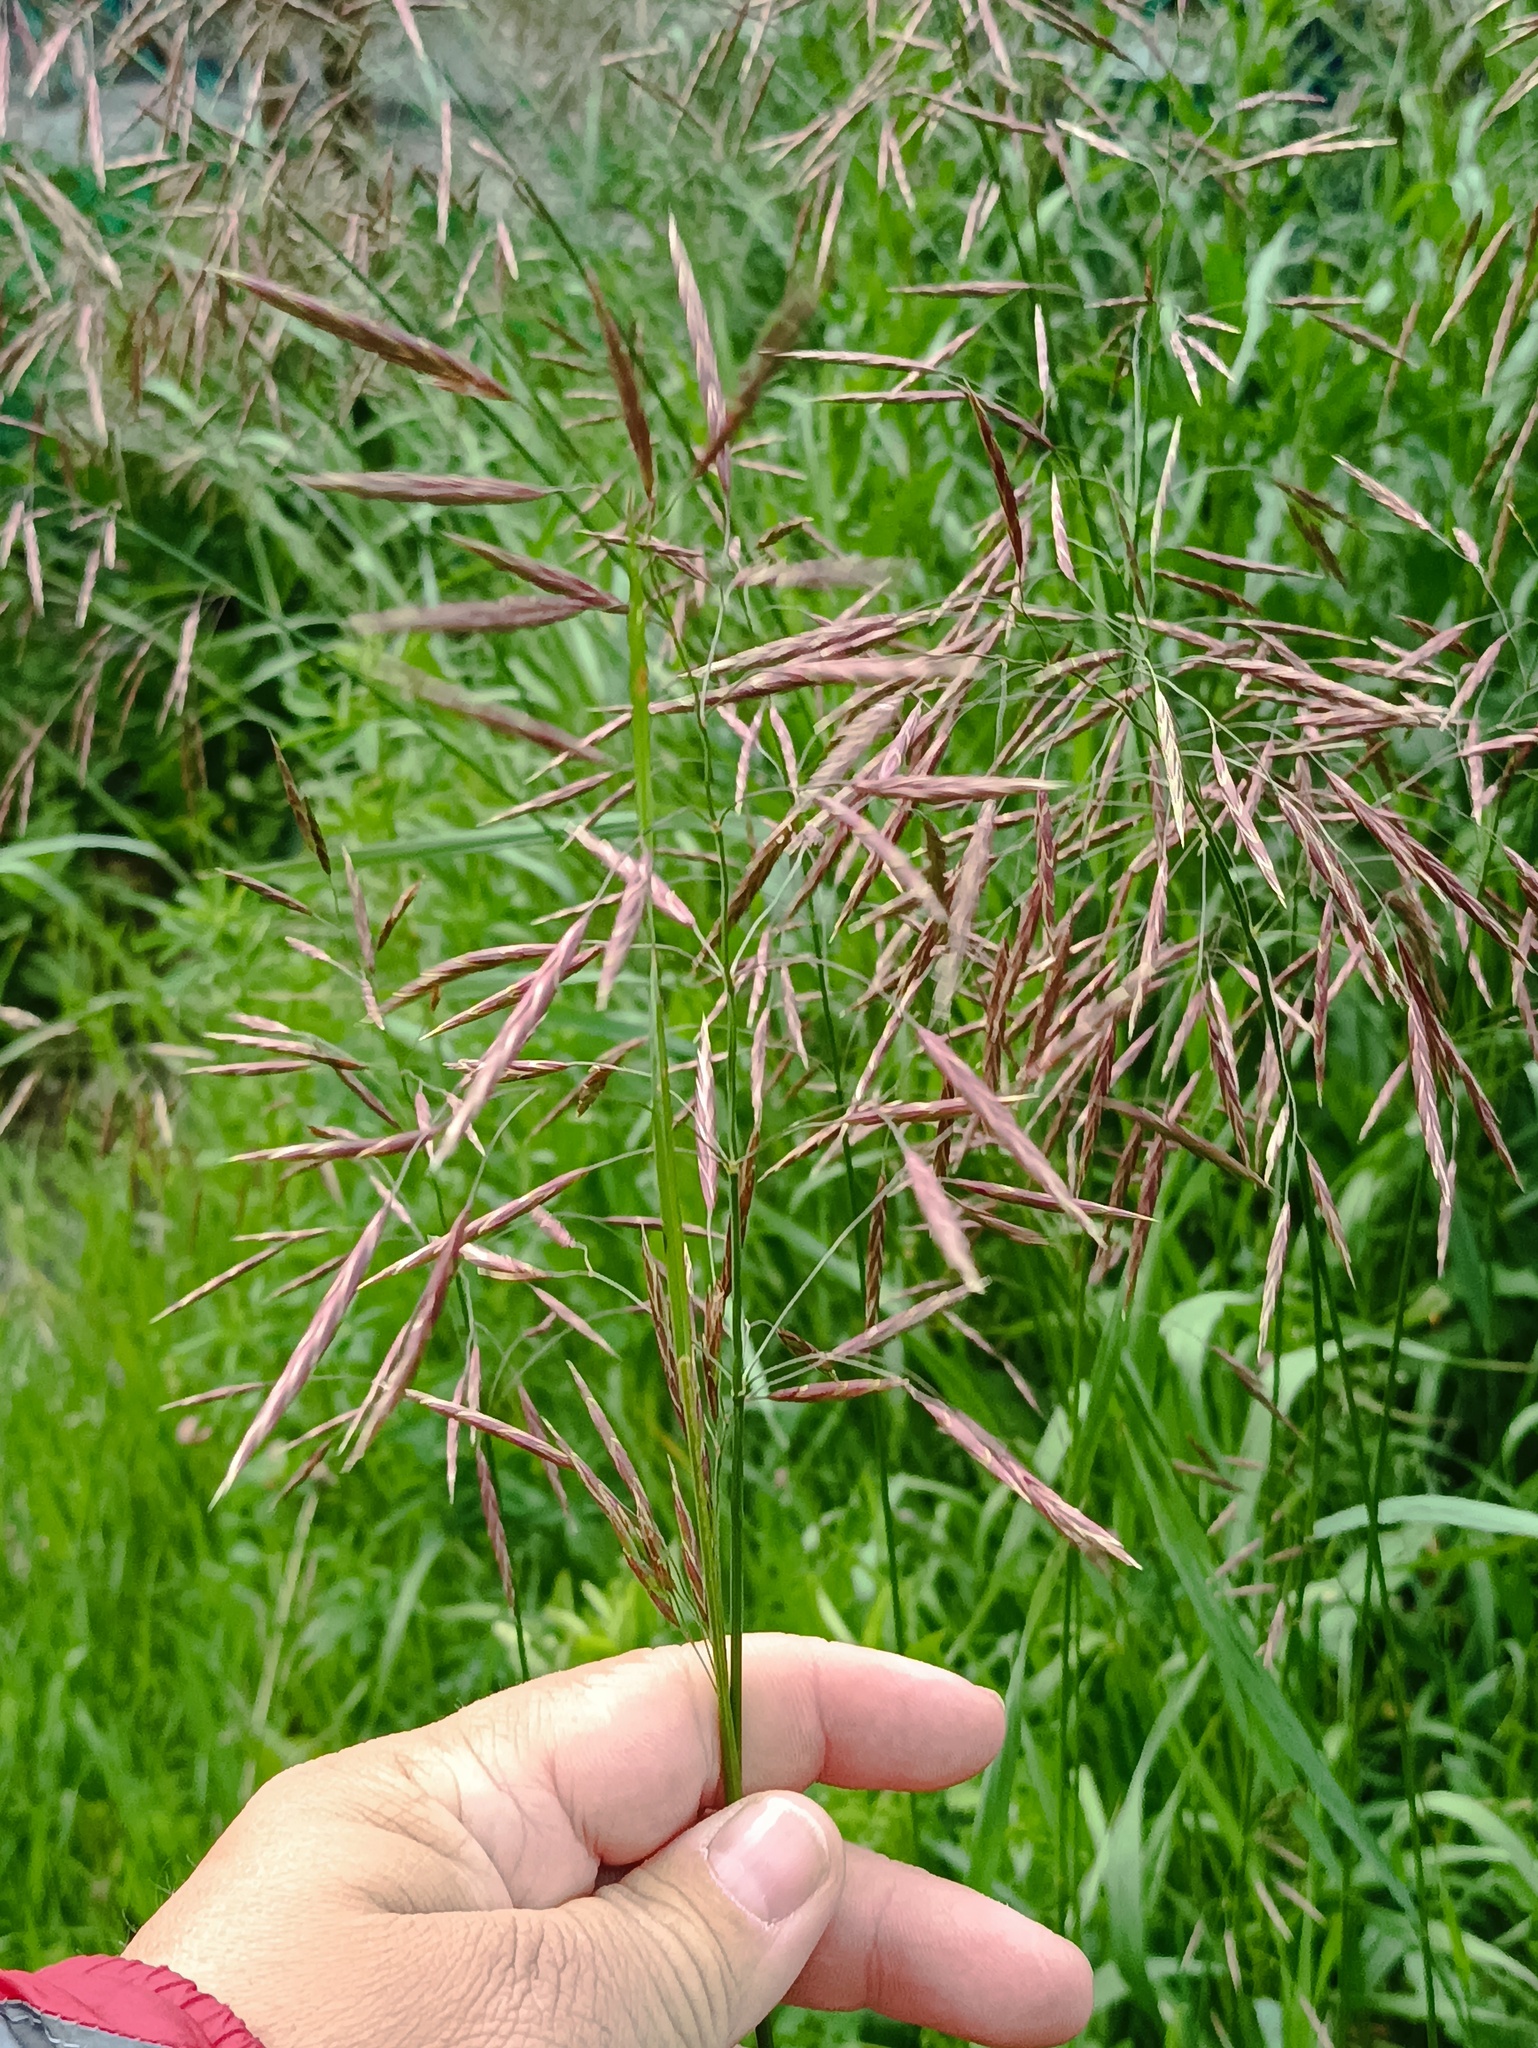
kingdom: Plantae
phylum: Tracheophyta
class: Liliopsida
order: Poales
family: Poaceae
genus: Bromus
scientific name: Bromus inermis
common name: Smooth brome
